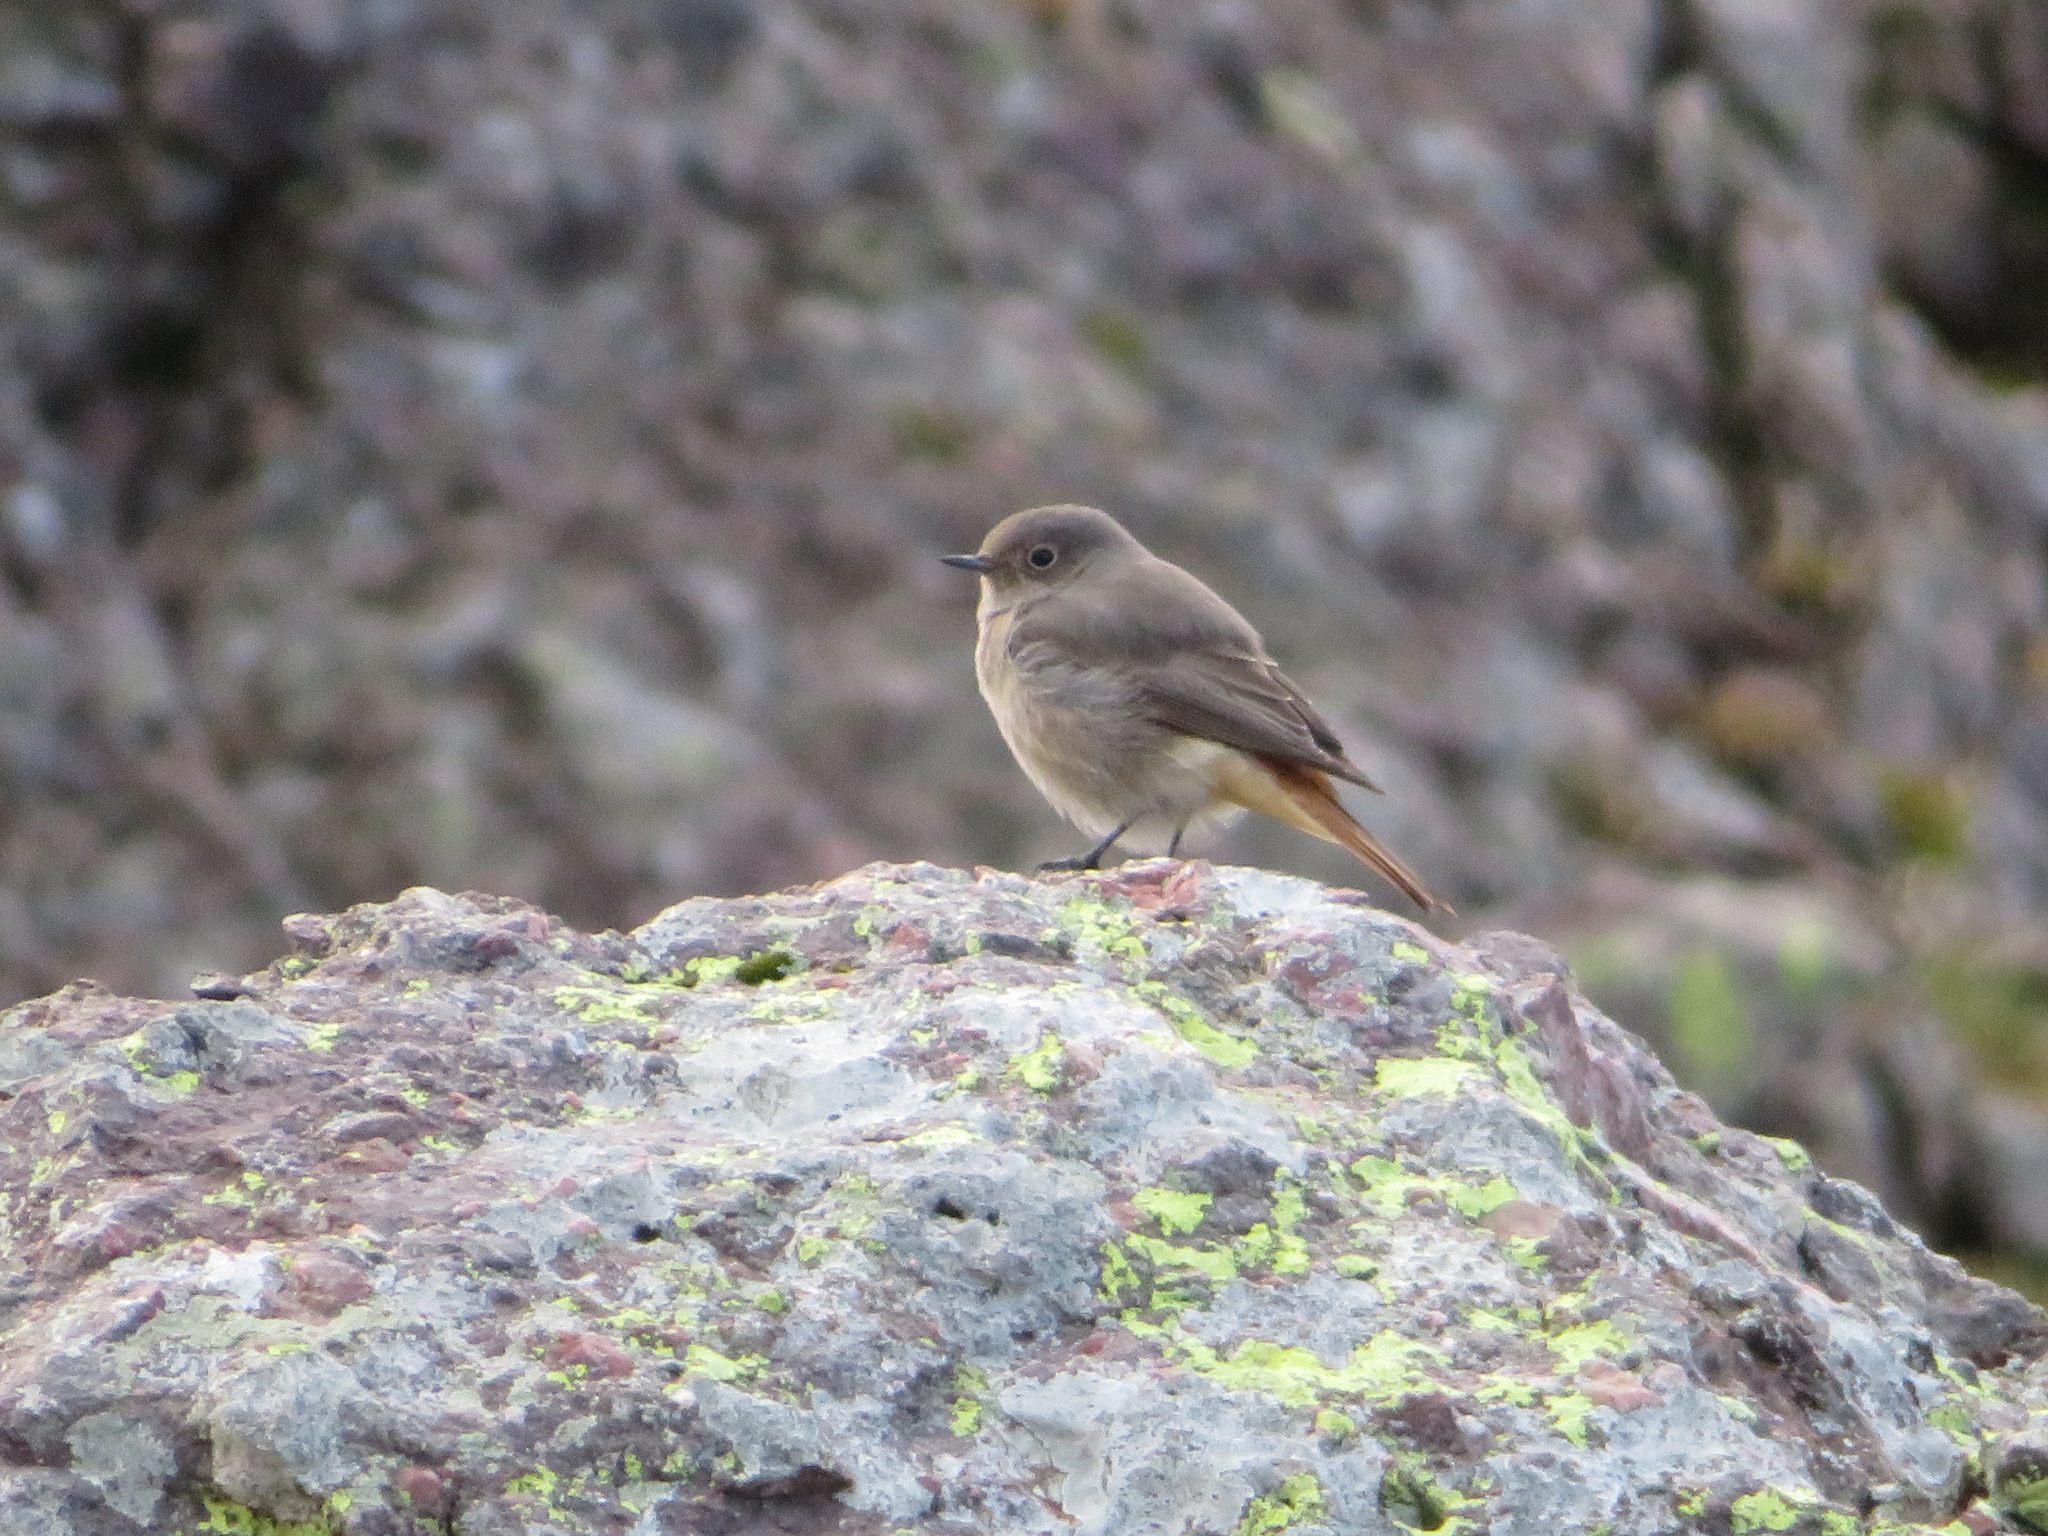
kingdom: Animalia
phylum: Chordata
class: Aves
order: Passeriformes
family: Muscicapidae
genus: Phoenicurus
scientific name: Phoenicurus ochruros
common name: Black redstart
